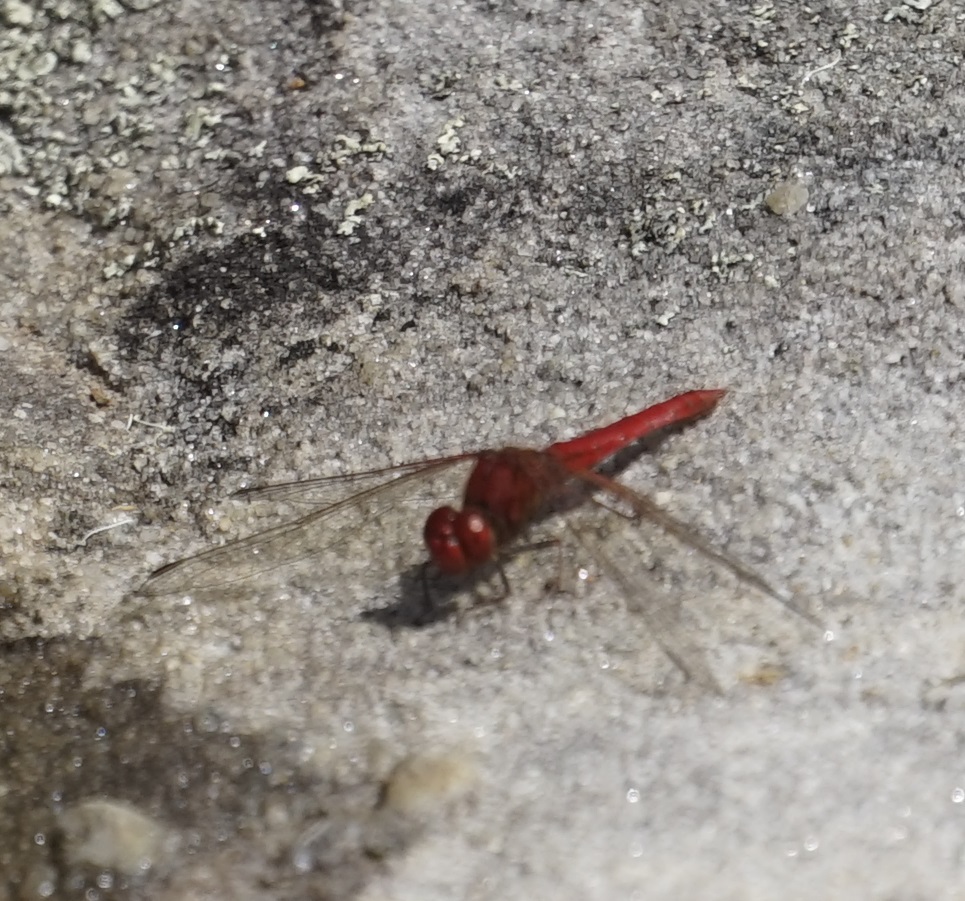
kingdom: Animalia
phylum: Arthropoda
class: Insecta
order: Odonata
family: Libellulidae
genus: Diplacodes
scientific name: Diplacodes haematodes
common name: Scarlet percher
